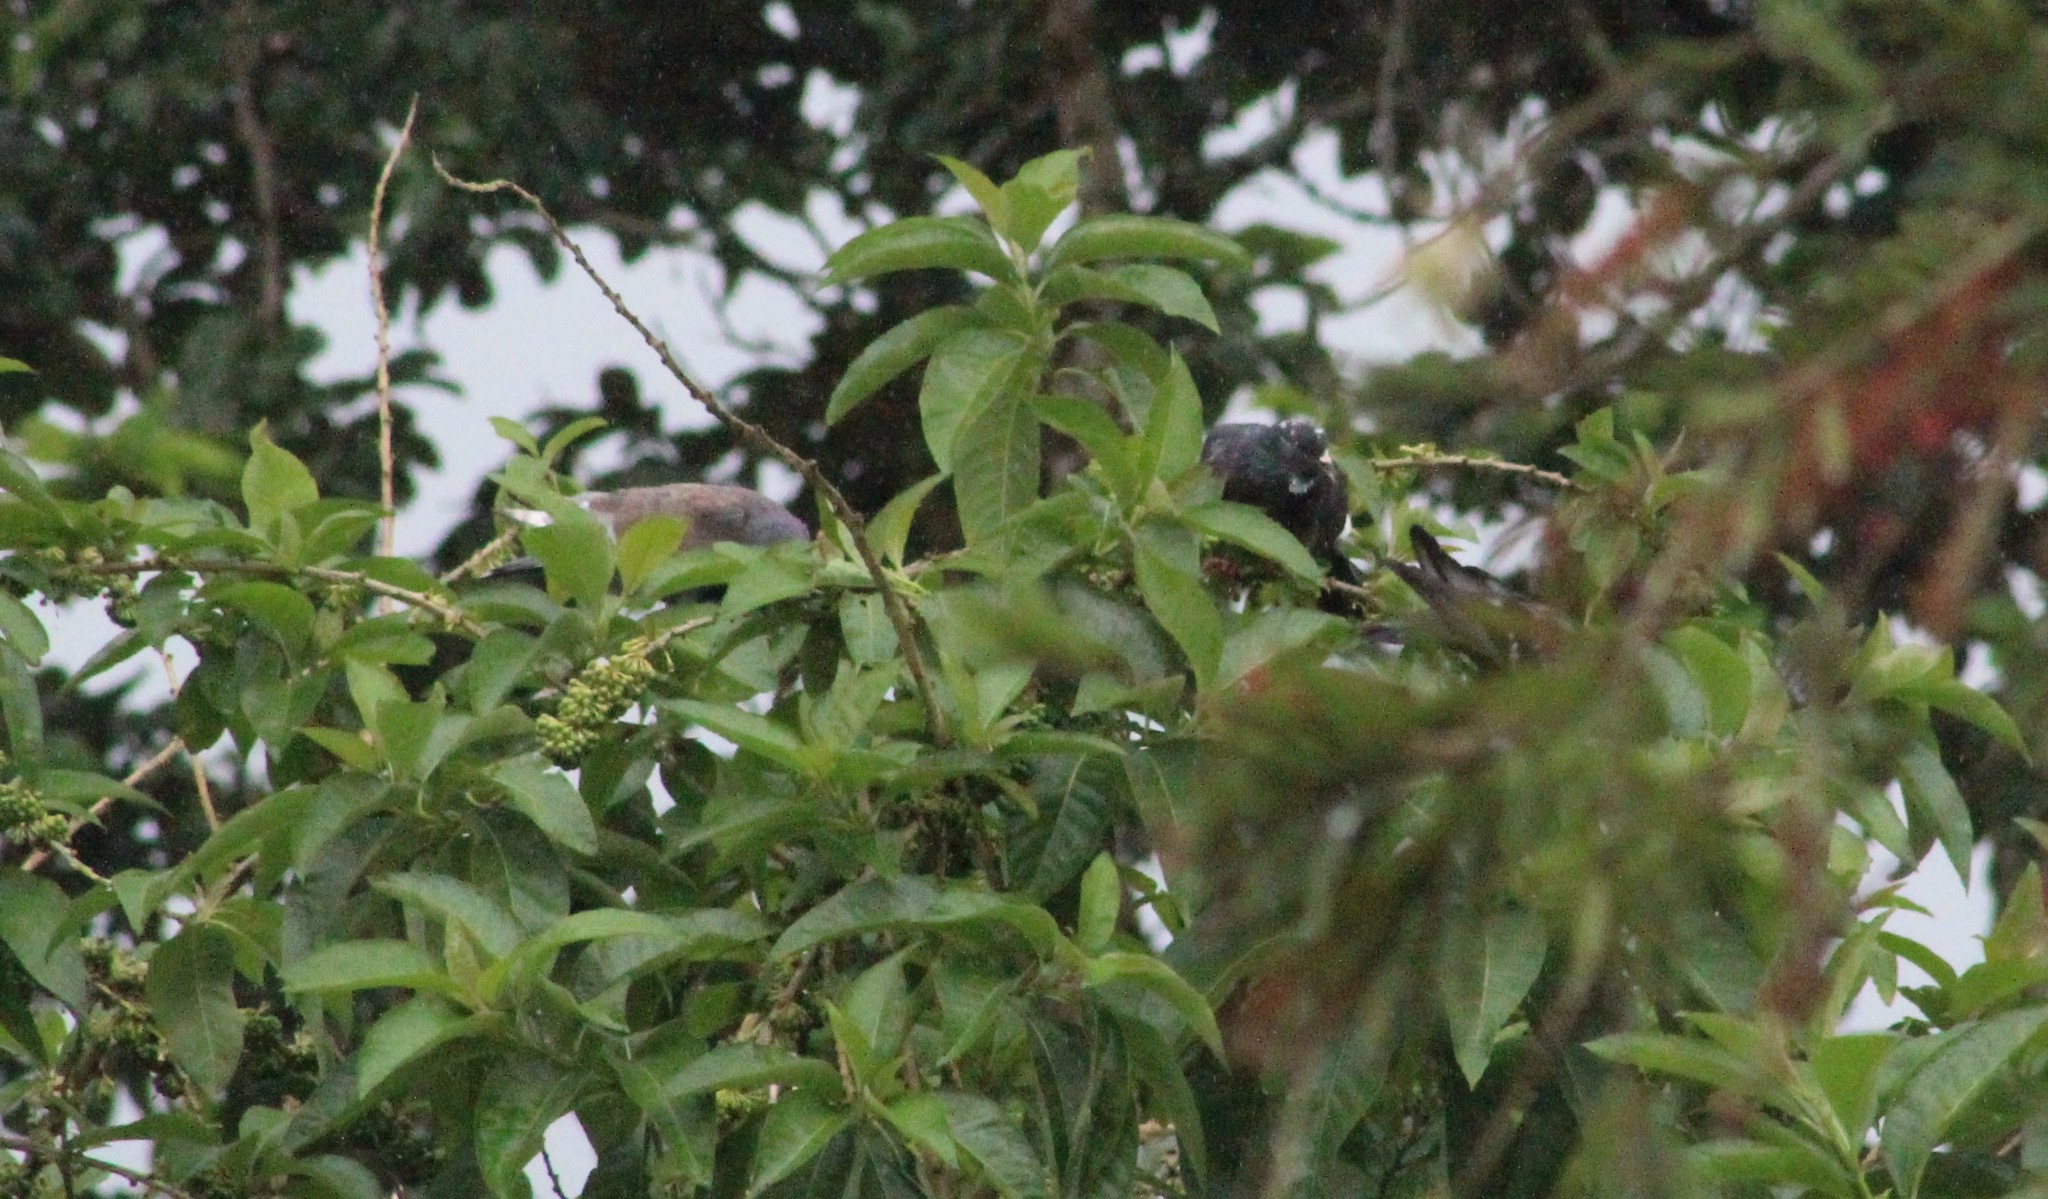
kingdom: Animalia
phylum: Chordata
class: Aves
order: Columbiformes
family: Columbidae
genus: Columba
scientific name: Columba livia
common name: Rock pigeon
